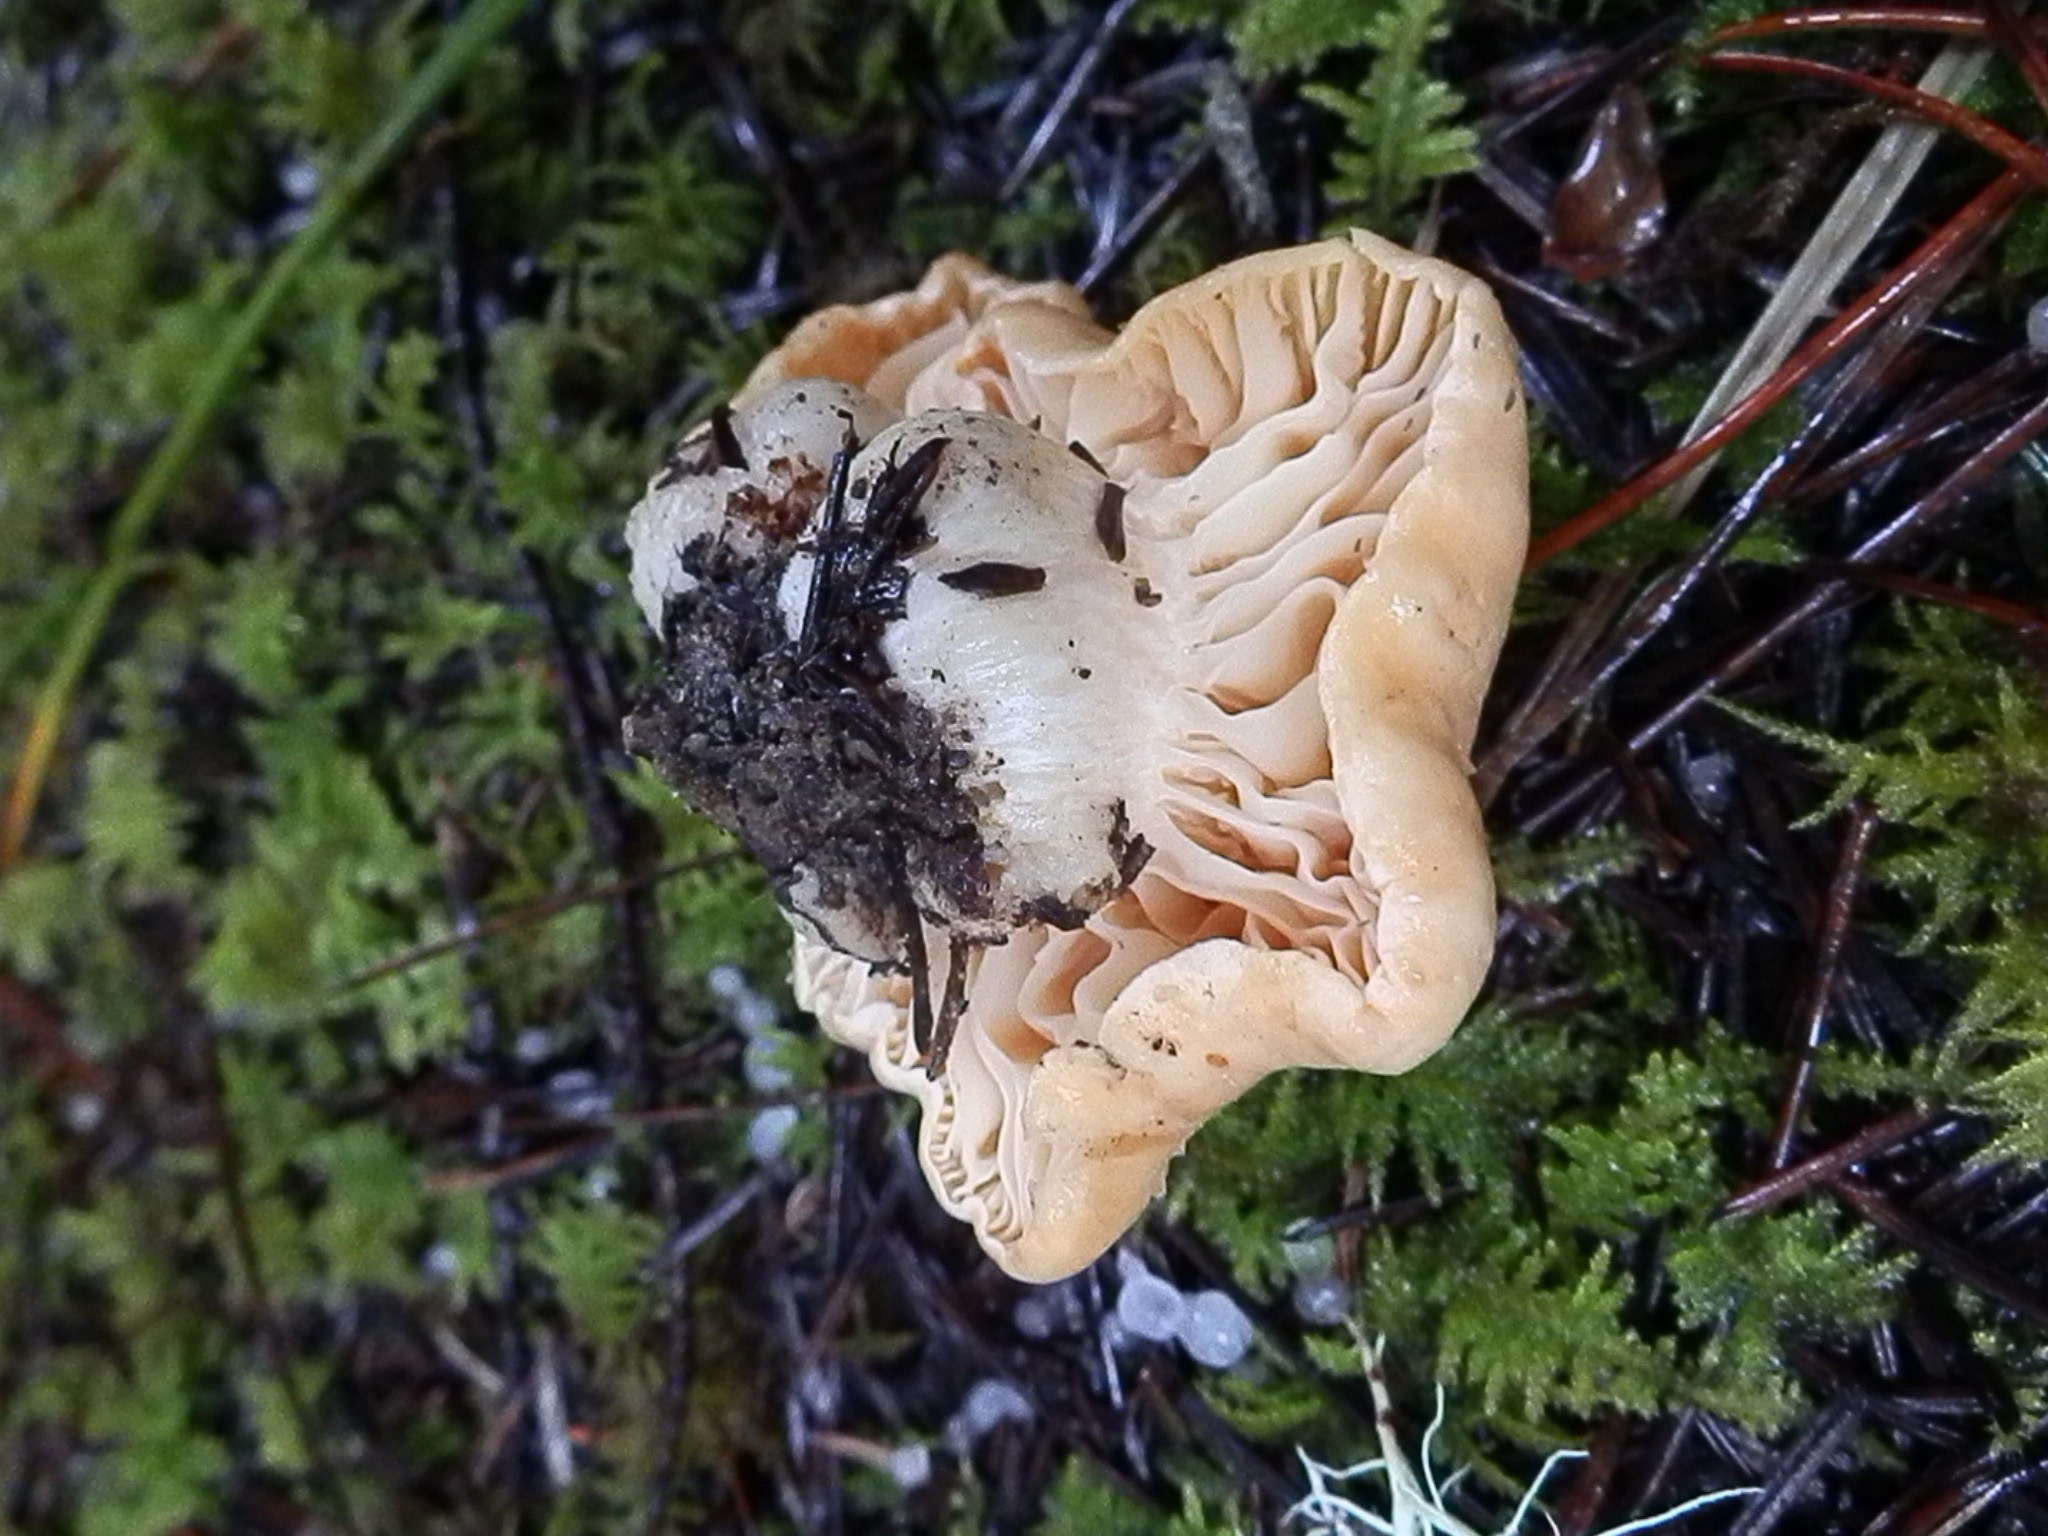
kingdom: Fungi
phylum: Basidiomycota
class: Agaricomycetes
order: Agaricales
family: Hygrophoraceae
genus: Cuphophyllus
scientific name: Cuphophyllus pratensis
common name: Meadow waxcap
